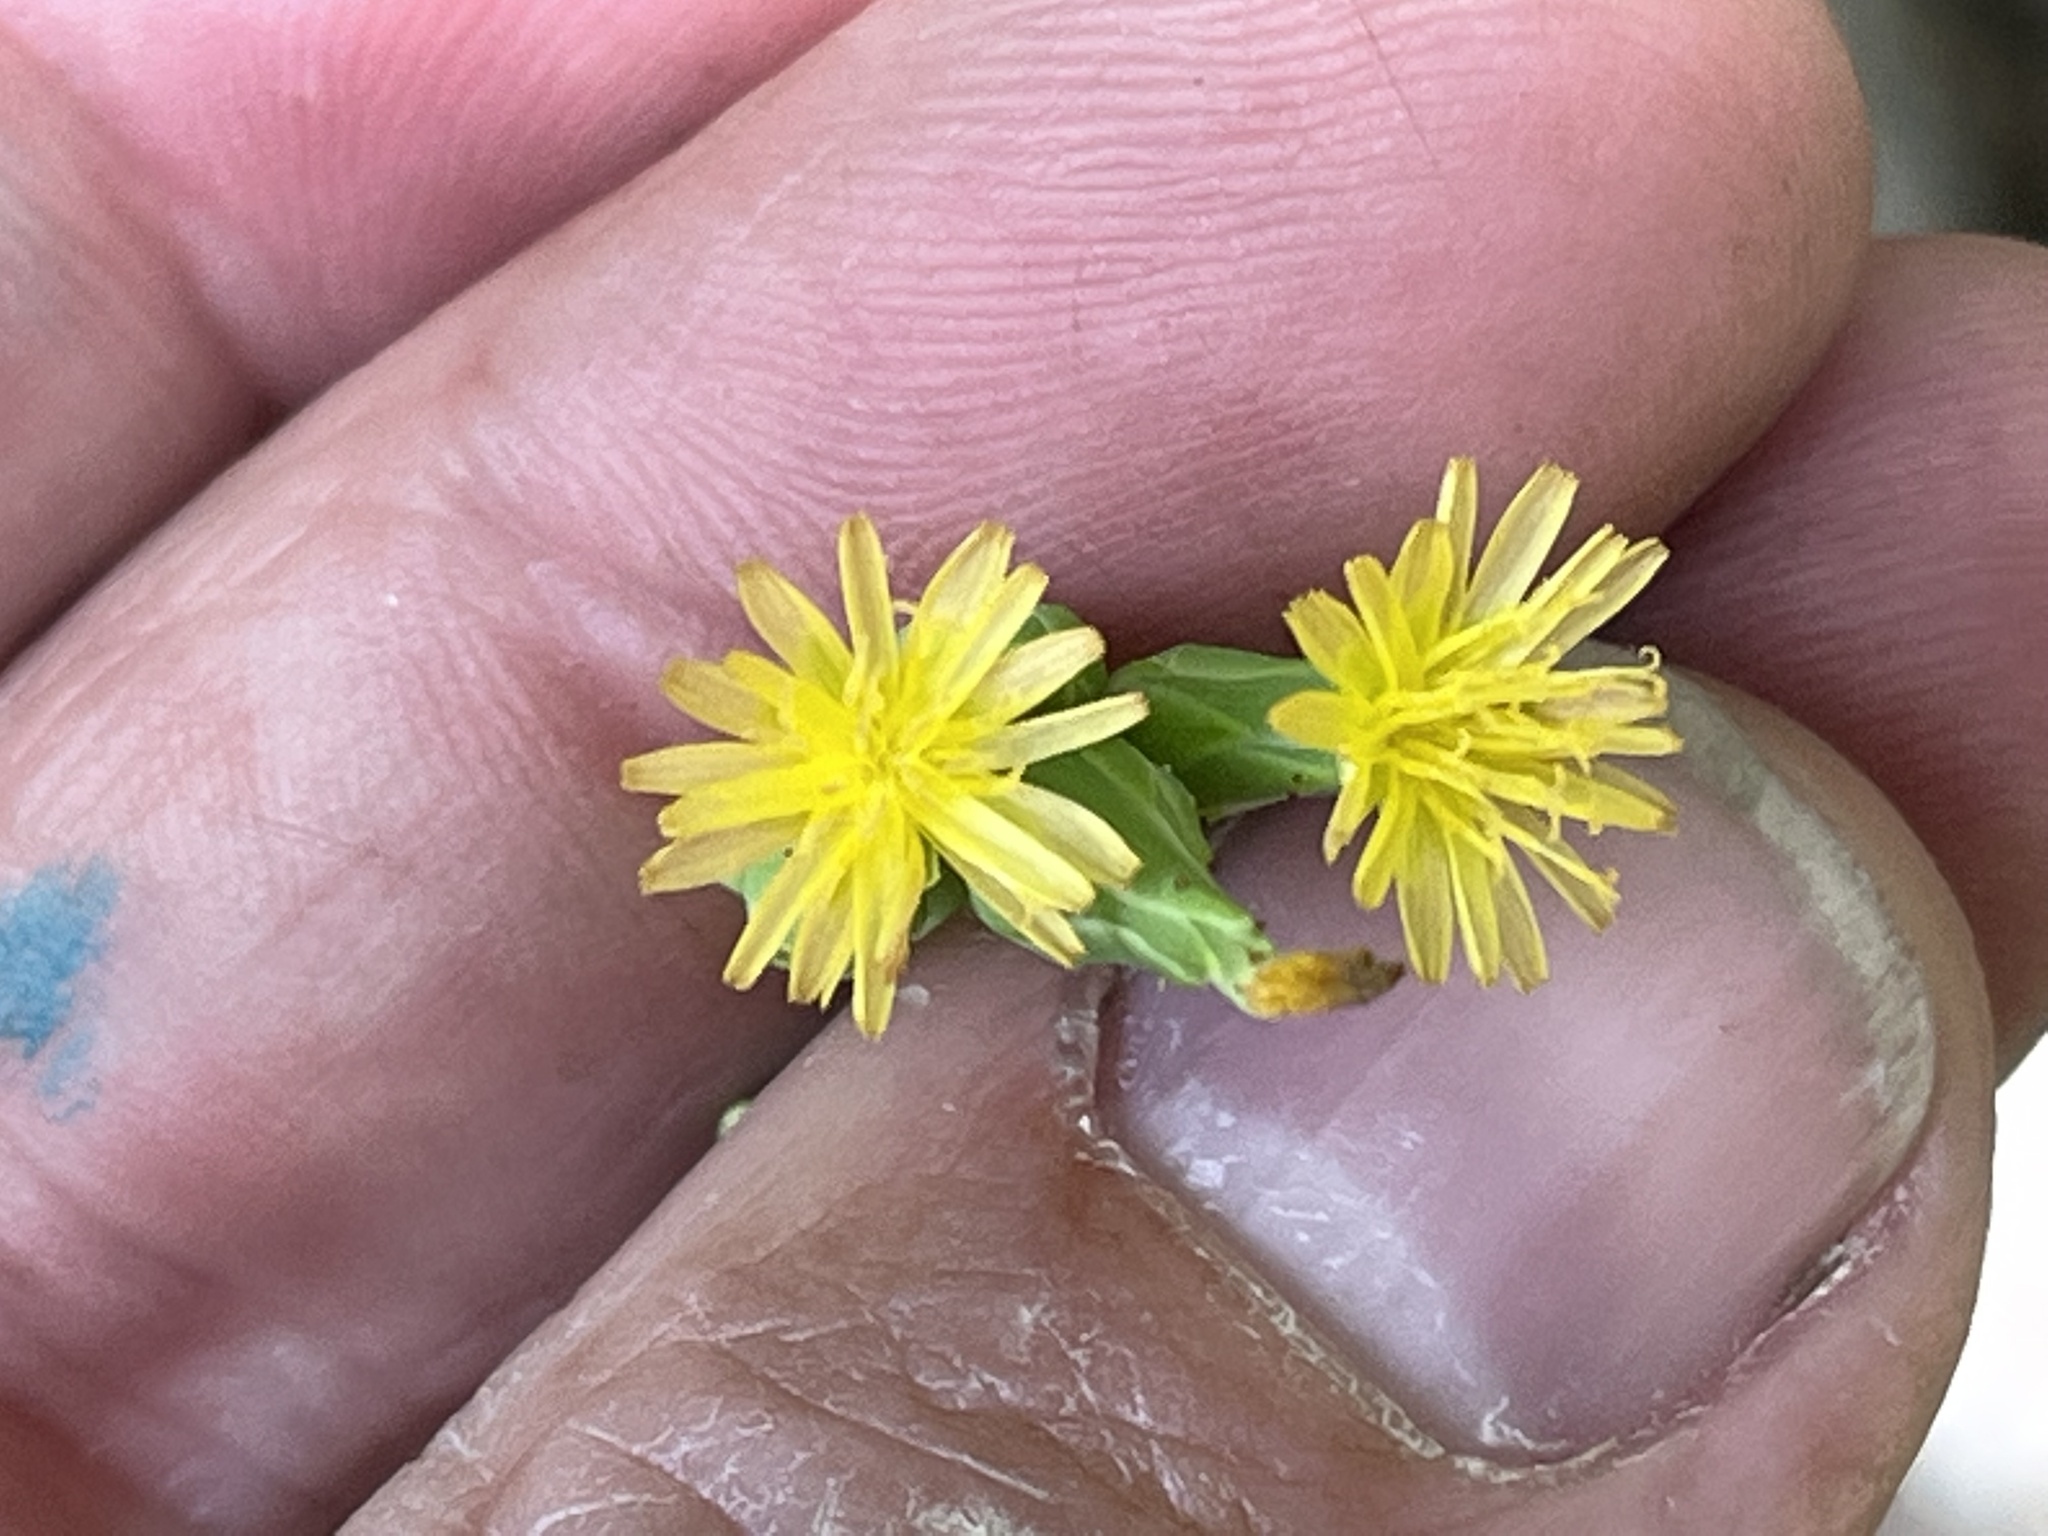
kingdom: Plantae
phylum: Tracheophyta
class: Magnoliopsida
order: Asterales
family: Asteraceae
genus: Lactuca
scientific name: Lactuca canadensis
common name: Canada lettuce
